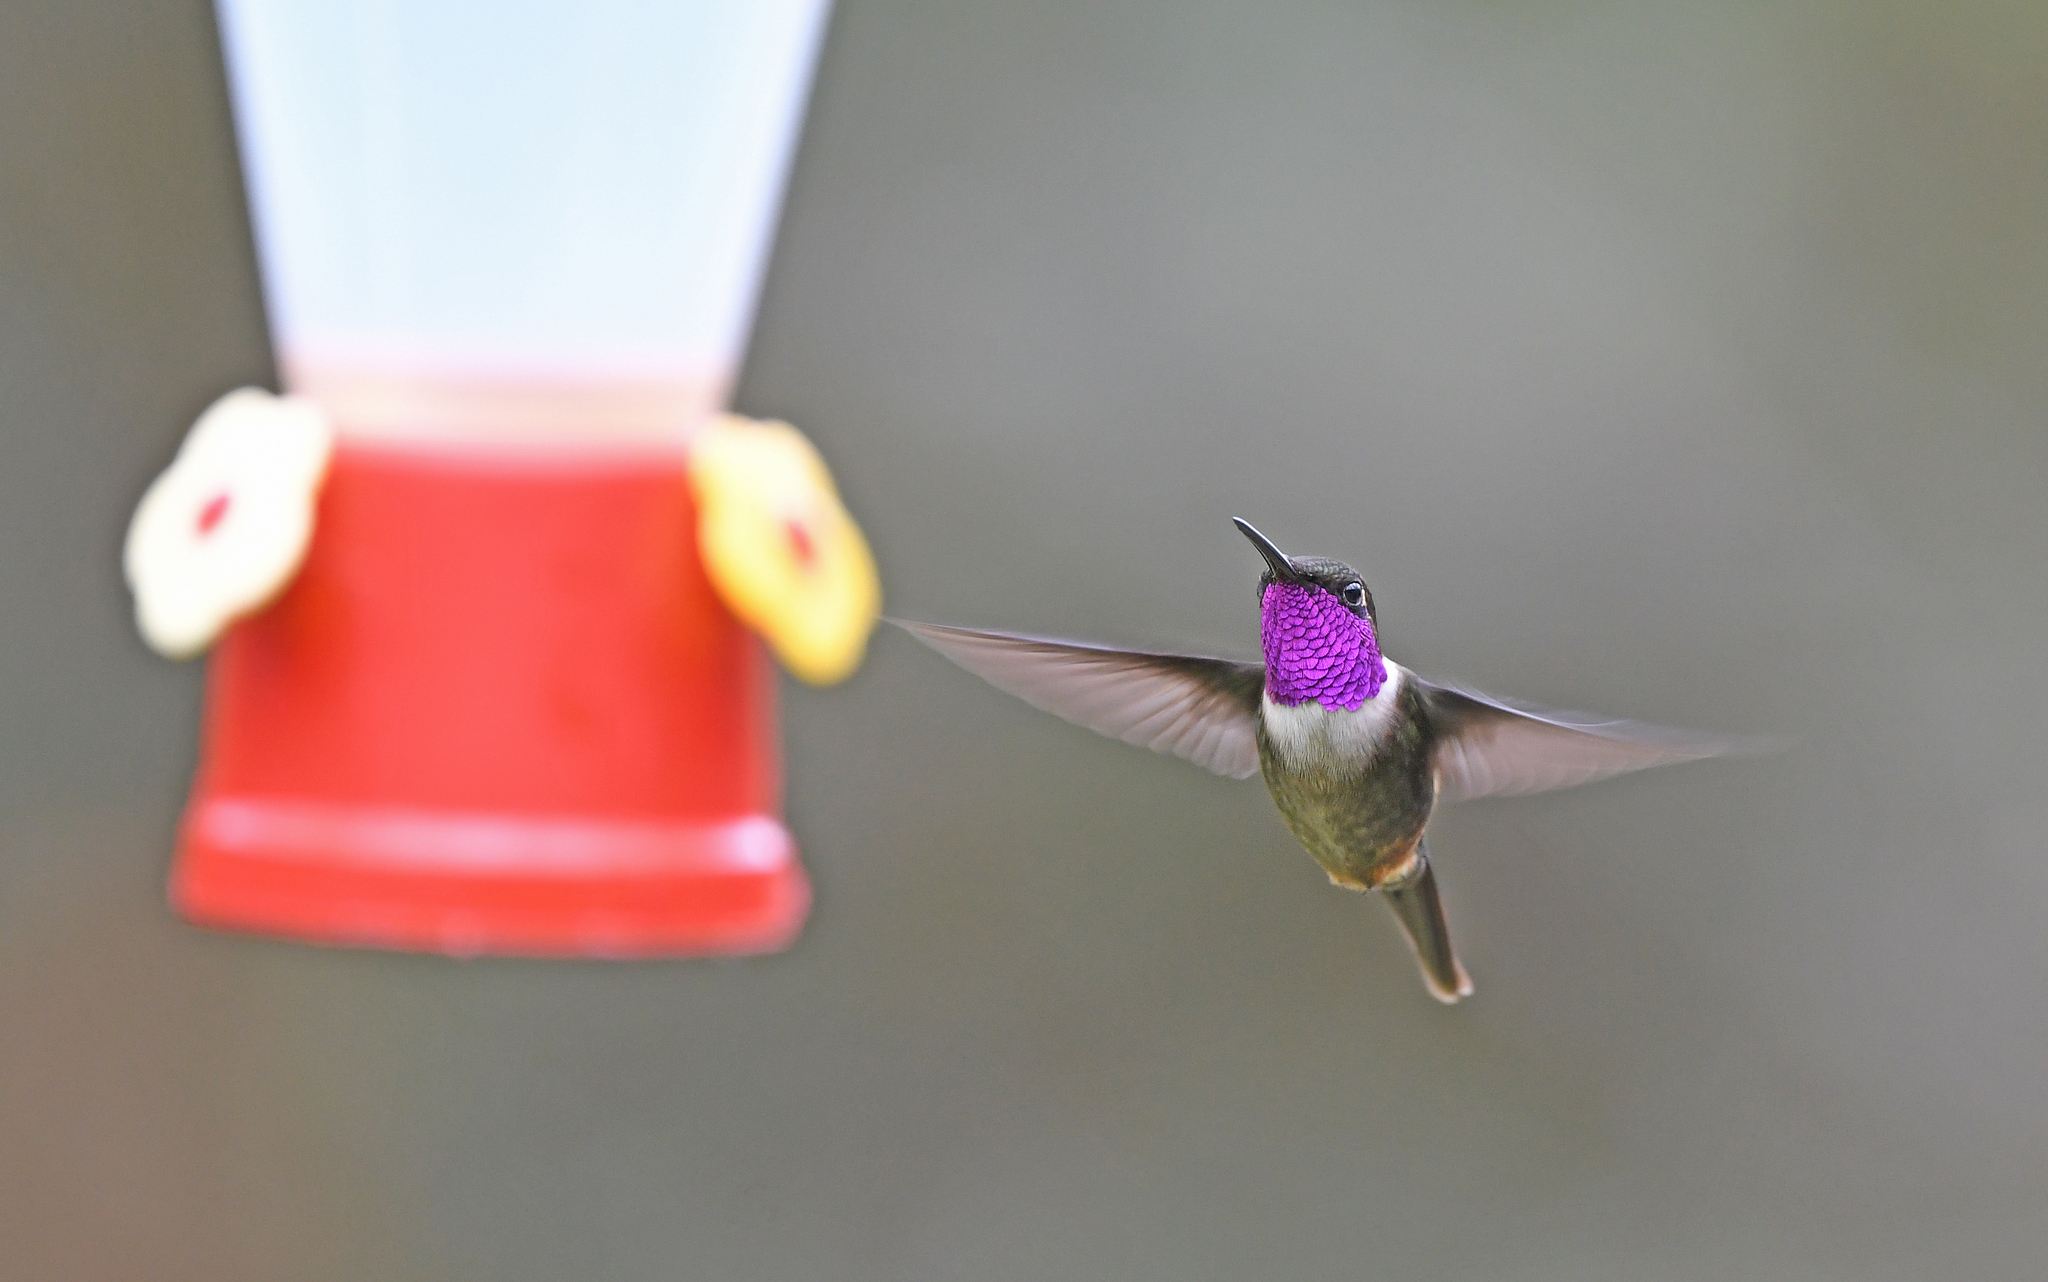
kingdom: Animalia
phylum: Chordata
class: Aves
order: Apodiformes
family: Trochilidae
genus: Calliphlox
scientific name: Calliphlox mitchellii
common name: Purple-throated woodstar
